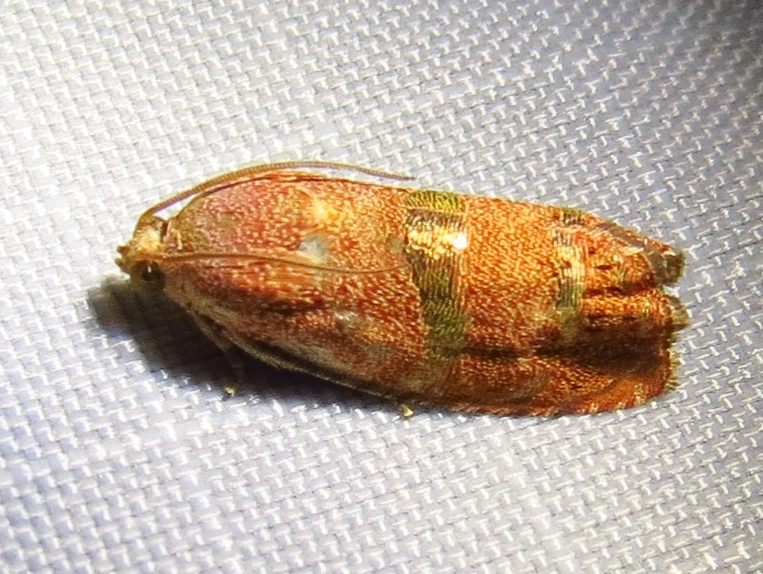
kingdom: Animalia
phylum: Arthropoda
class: Insecta
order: Lepidoptera
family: Tortricidae
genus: Cydia
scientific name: Cydia latiferreana
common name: Filbertworm moth
